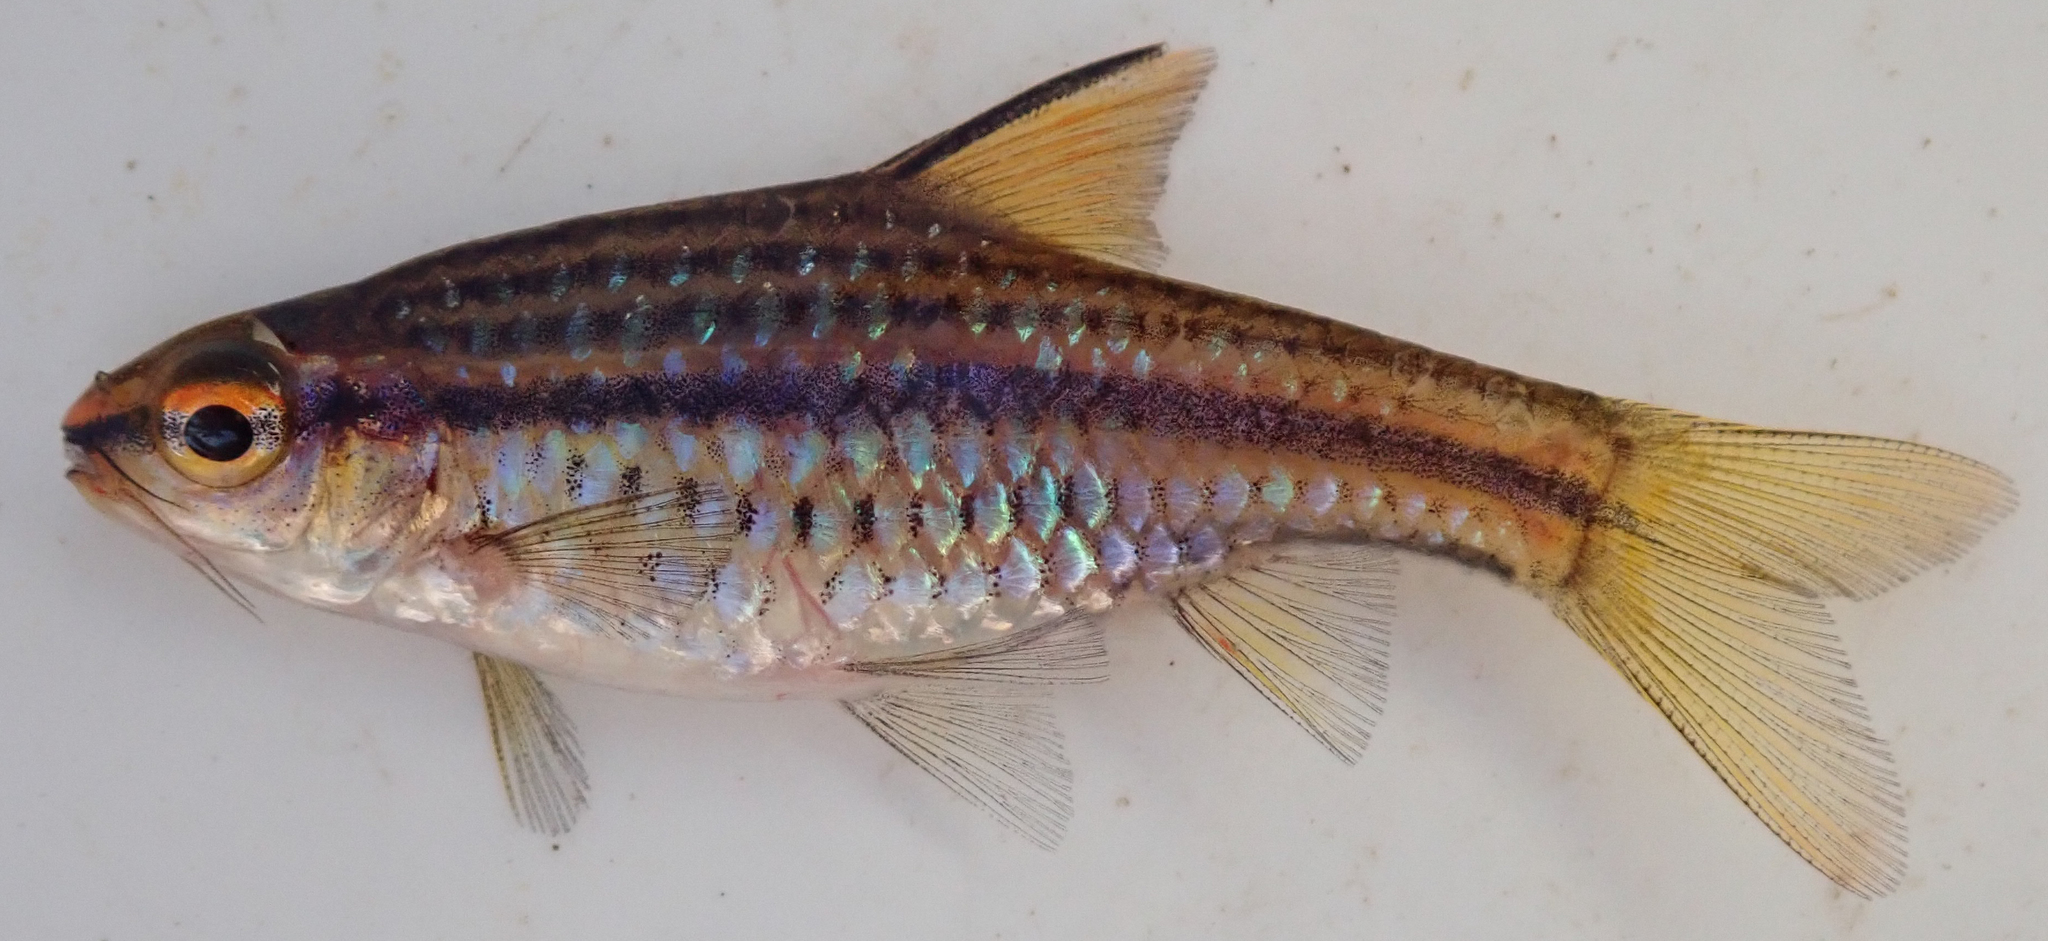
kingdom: Animalia
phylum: Chordata
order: Cypriniformes
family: Cyprinidae
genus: Enteromius
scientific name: Enteromius multilineatus
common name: Copperstripe barb
